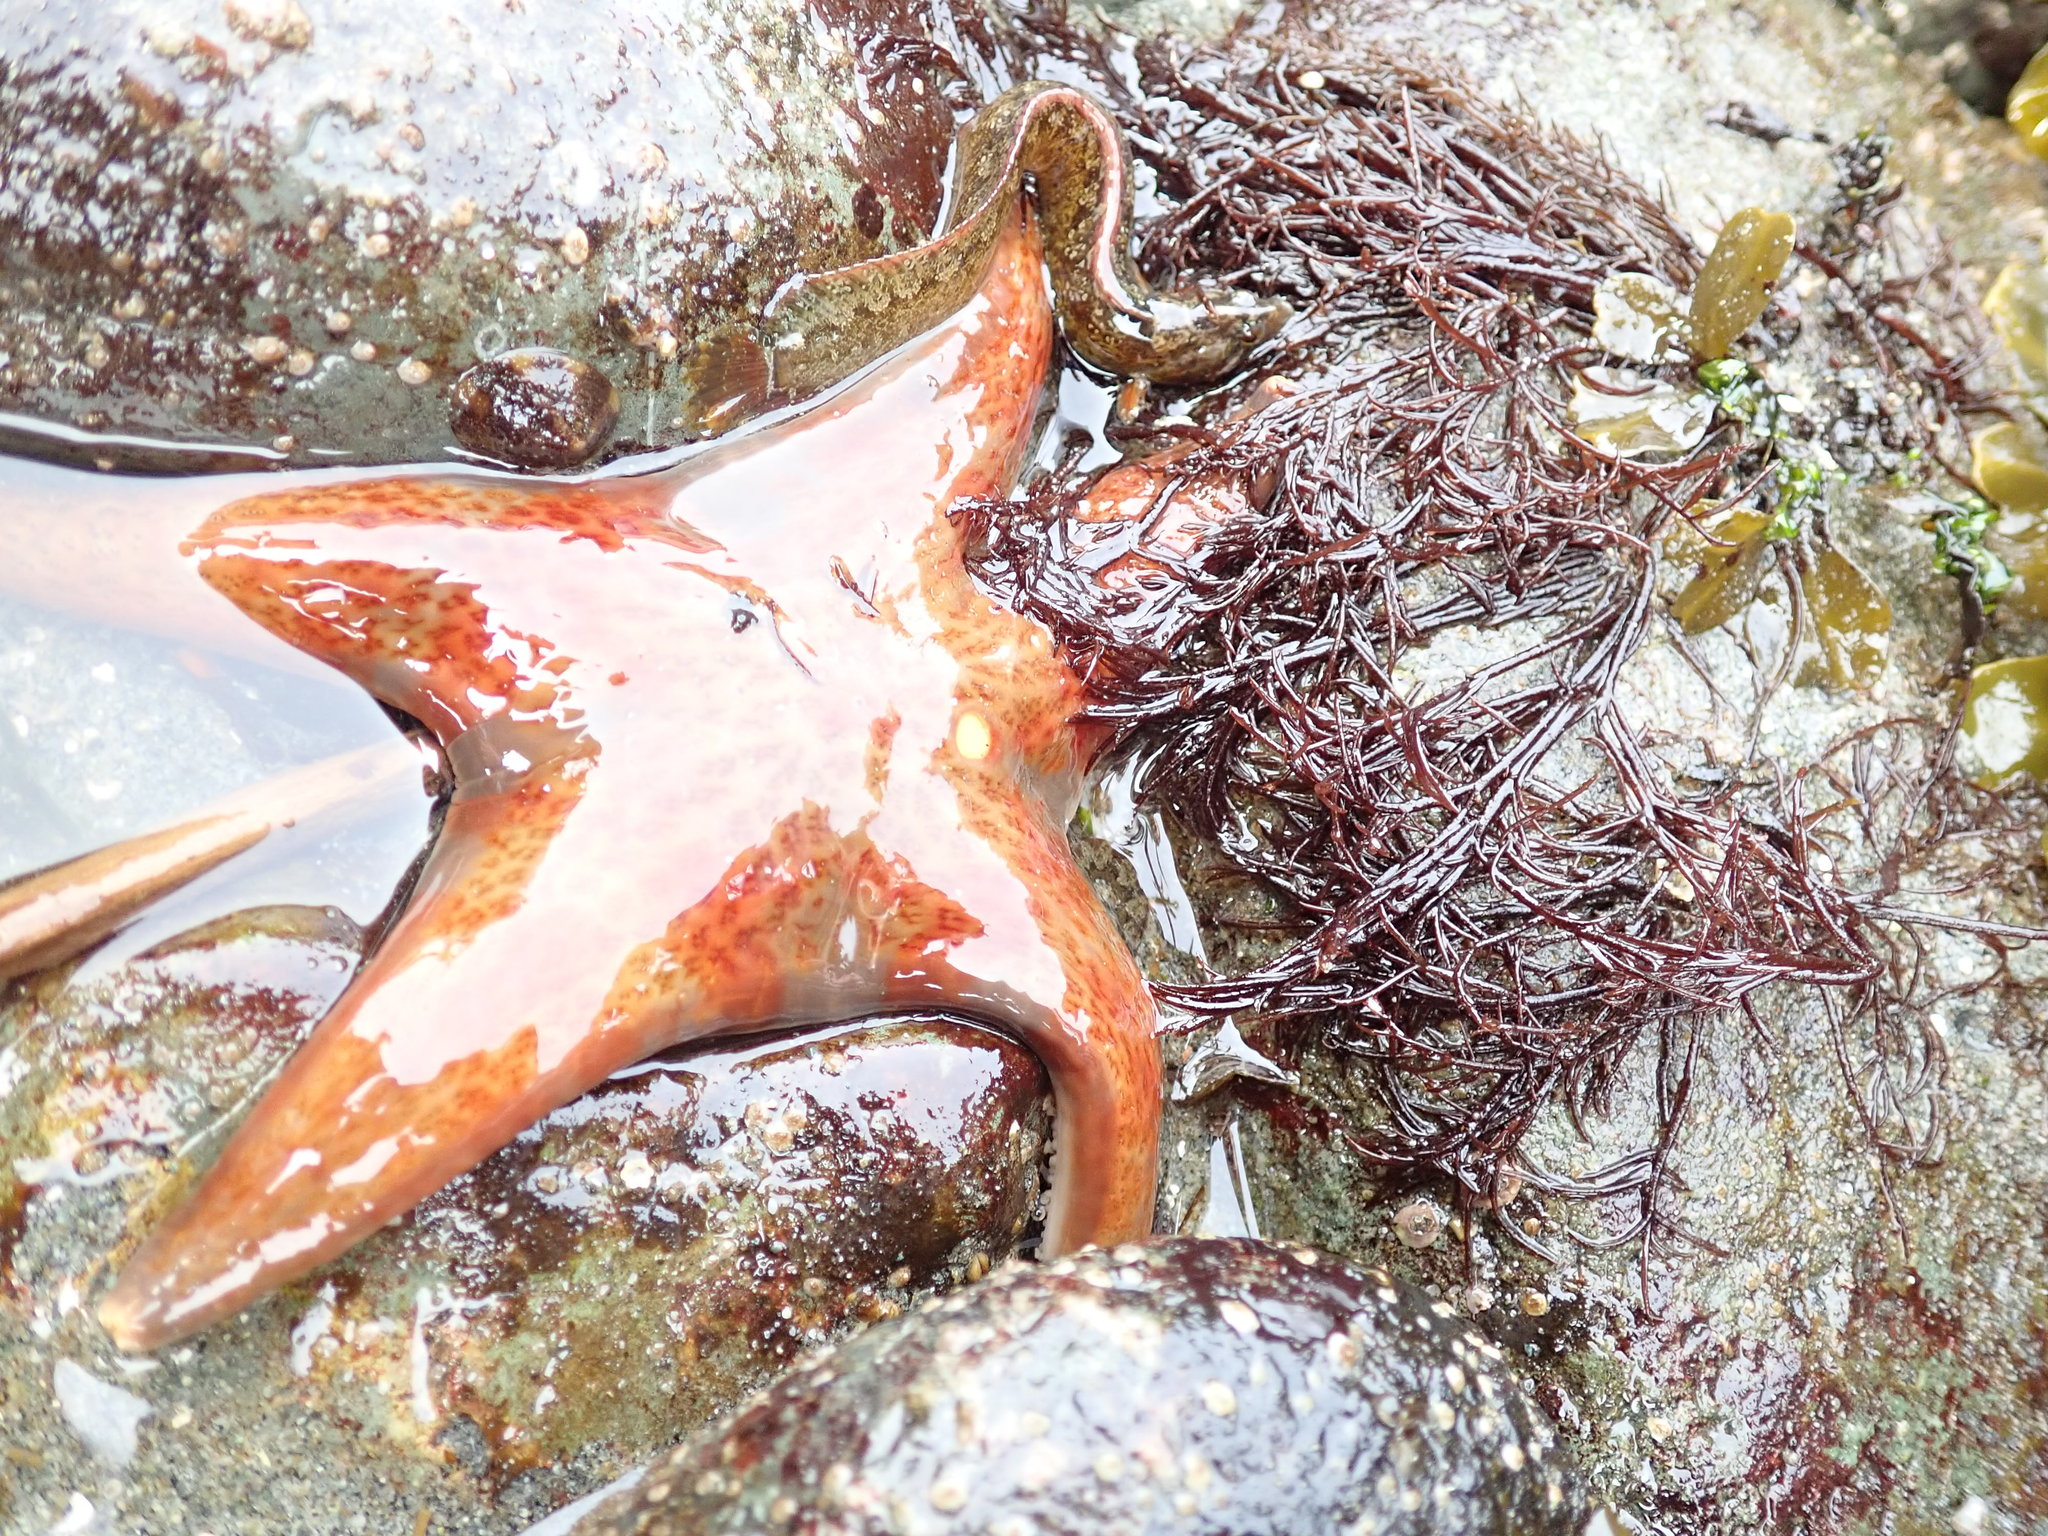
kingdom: Animalia
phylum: Echinodermata
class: Asteroidea
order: Valvatida
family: Asteropseidae
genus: Dermasterias
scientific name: Dermasterias imbricata
